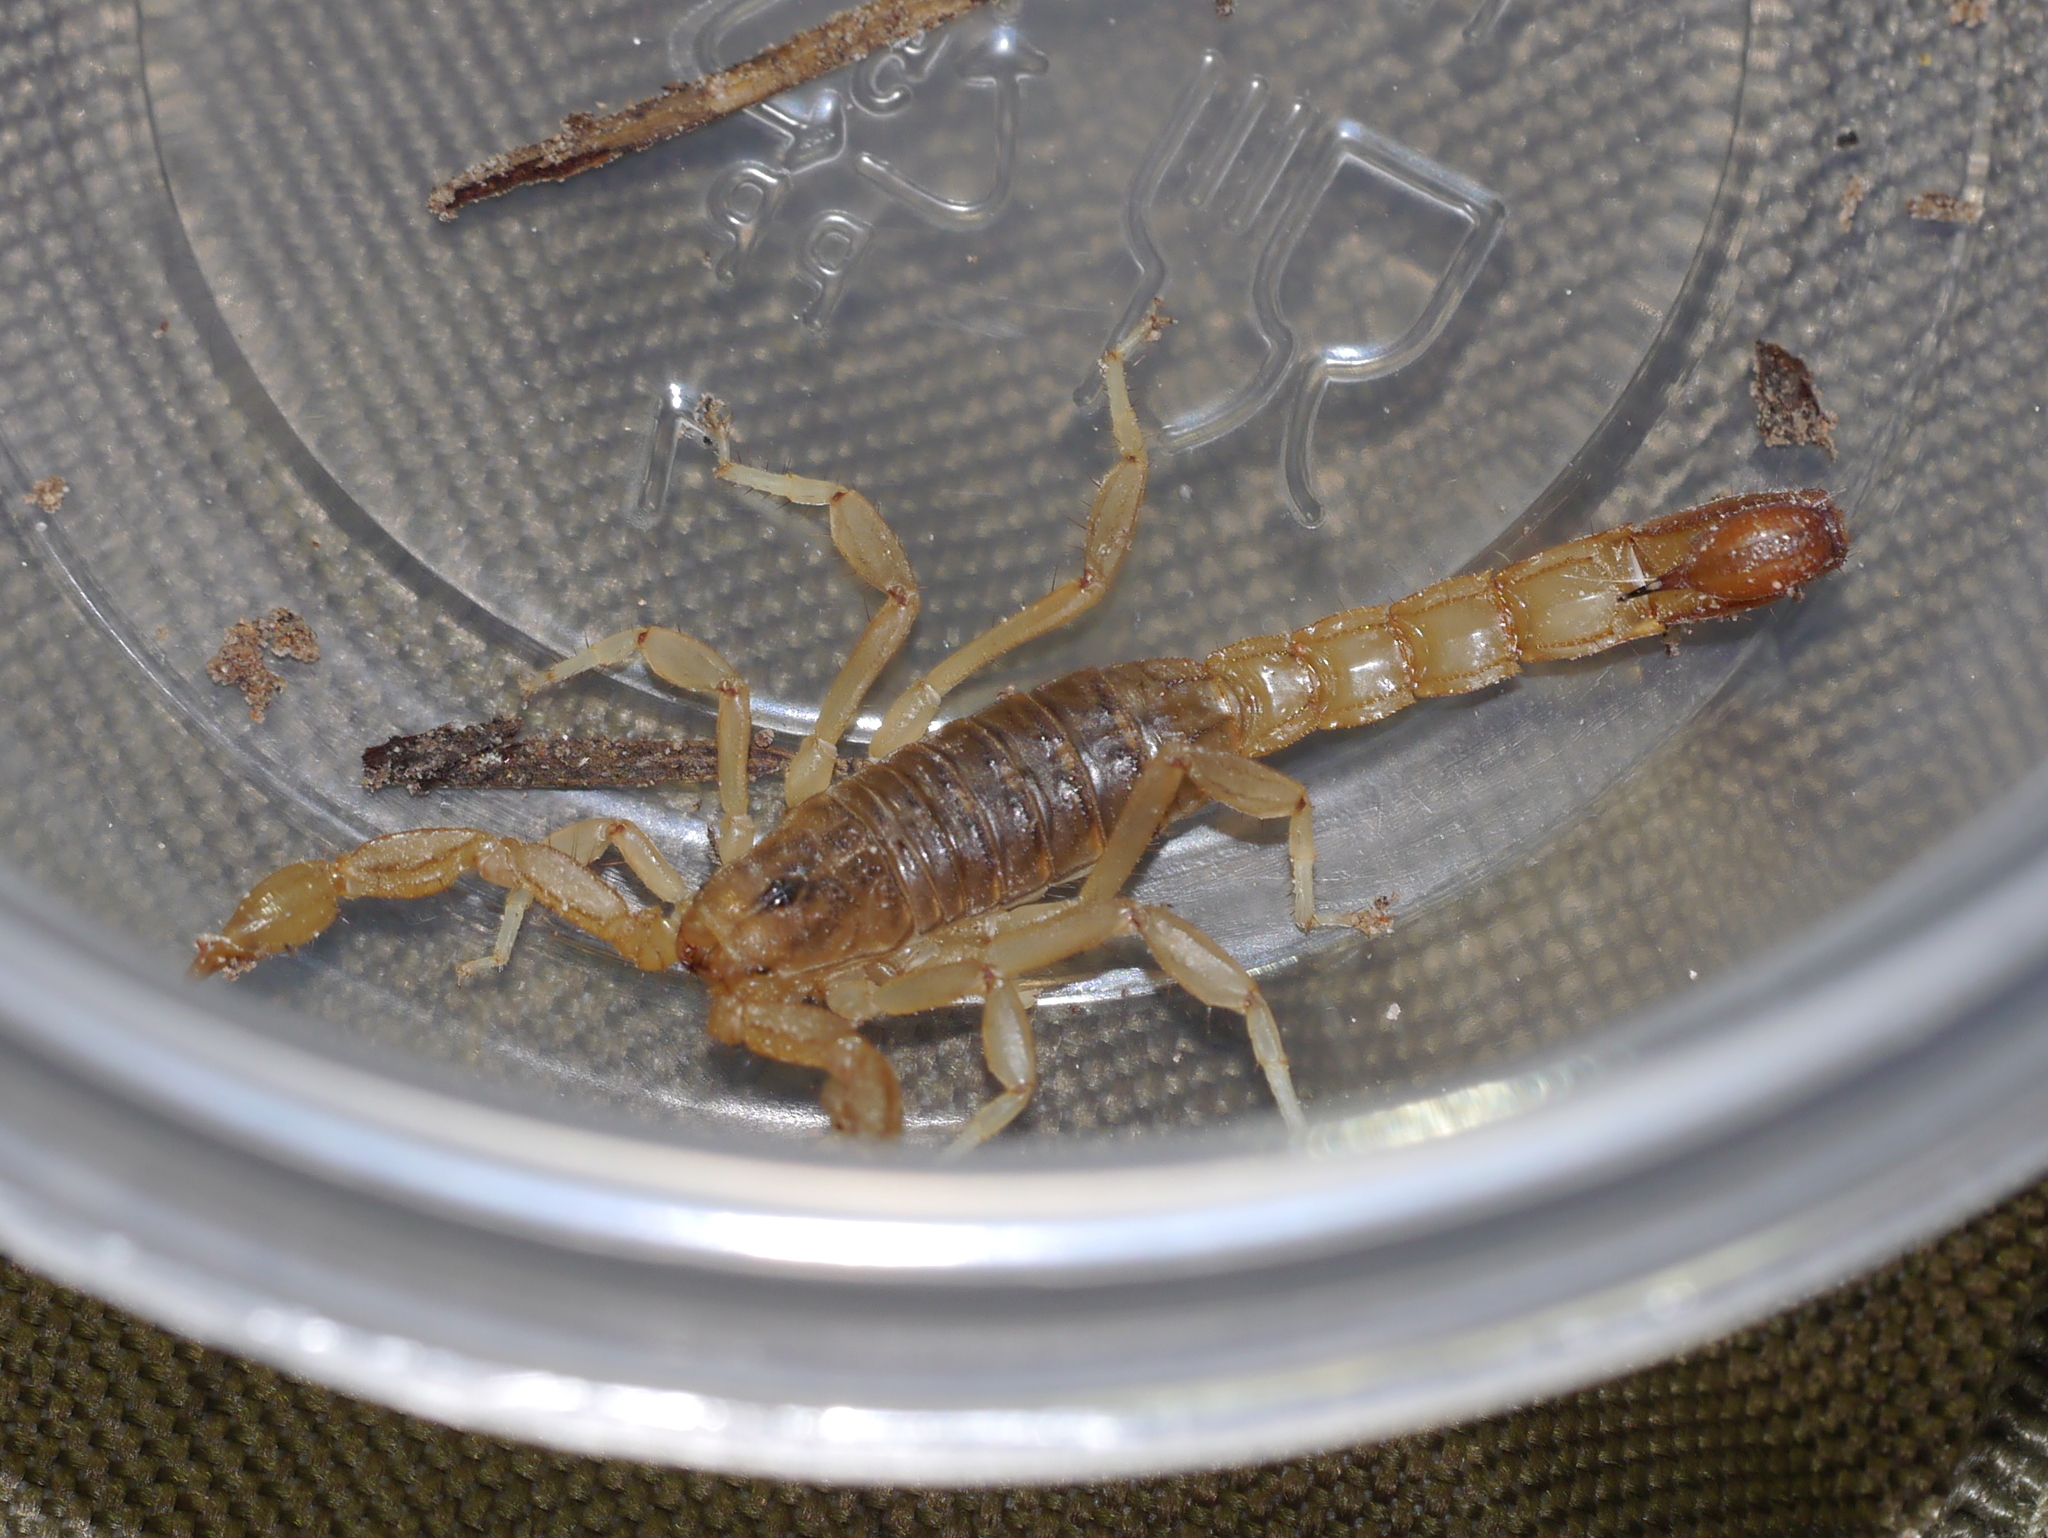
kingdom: Animalia
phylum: Arthropoda
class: Arachnida
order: Scorpiones
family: Vaejovidae
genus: Paravaejovis
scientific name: Paravaejovis spinigerus
